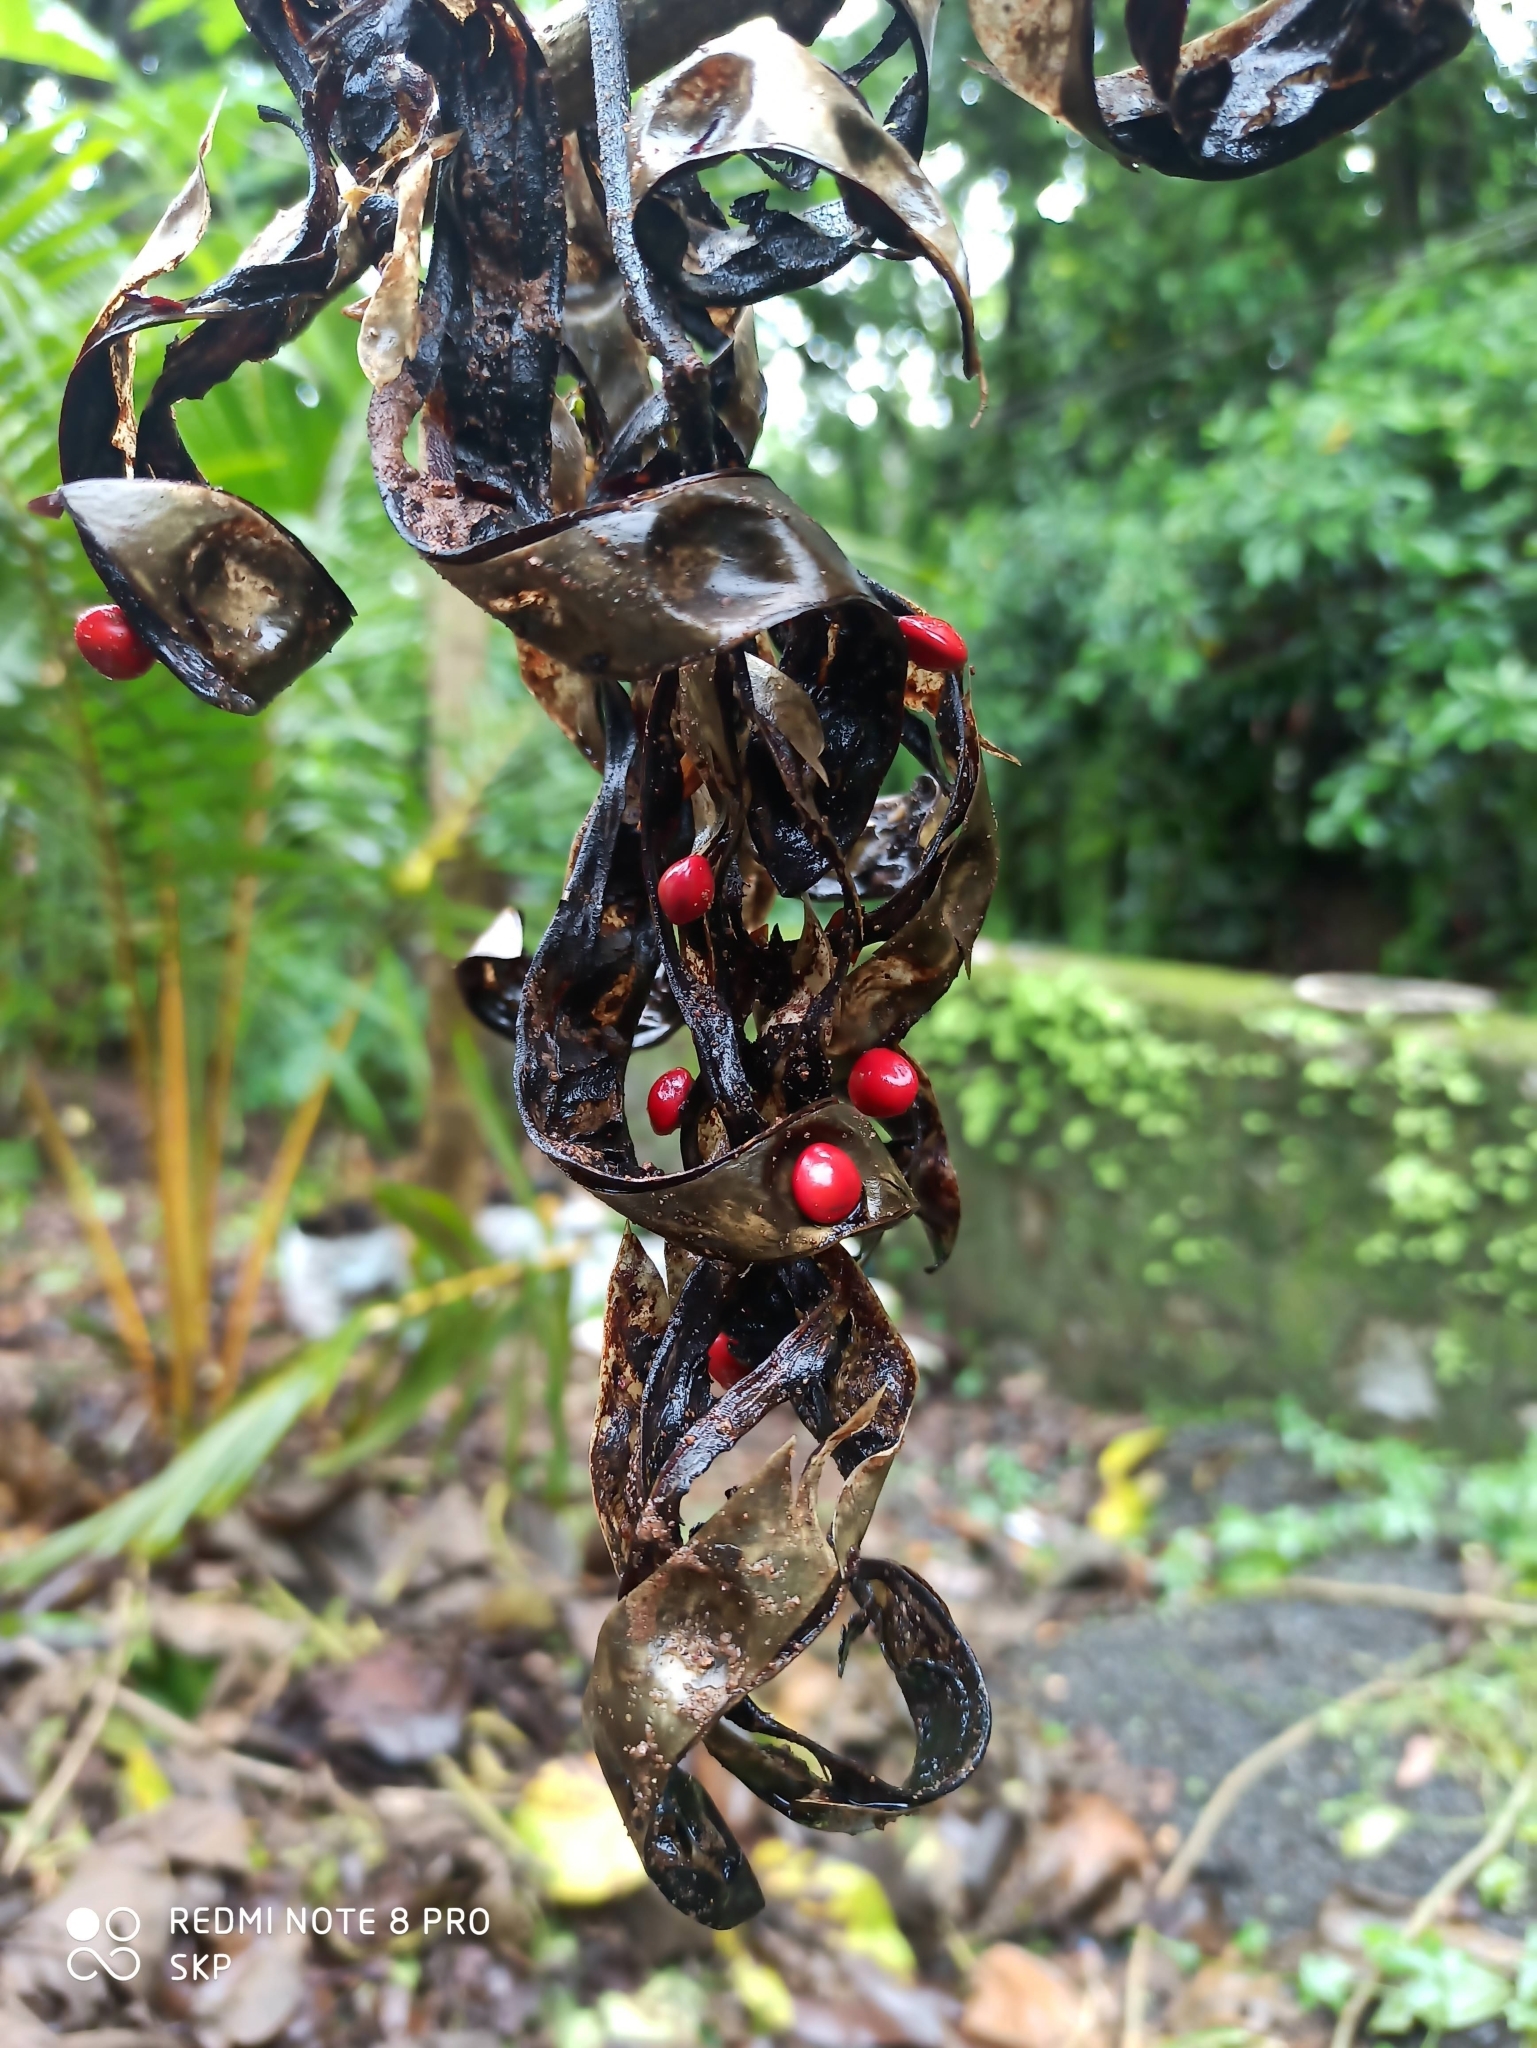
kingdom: Plantae
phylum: Tracheophyta
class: Magnoliopsida
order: Fabales
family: Fabaceae
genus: Abrus
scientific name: Abrus precatorius
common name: Rosarypea
